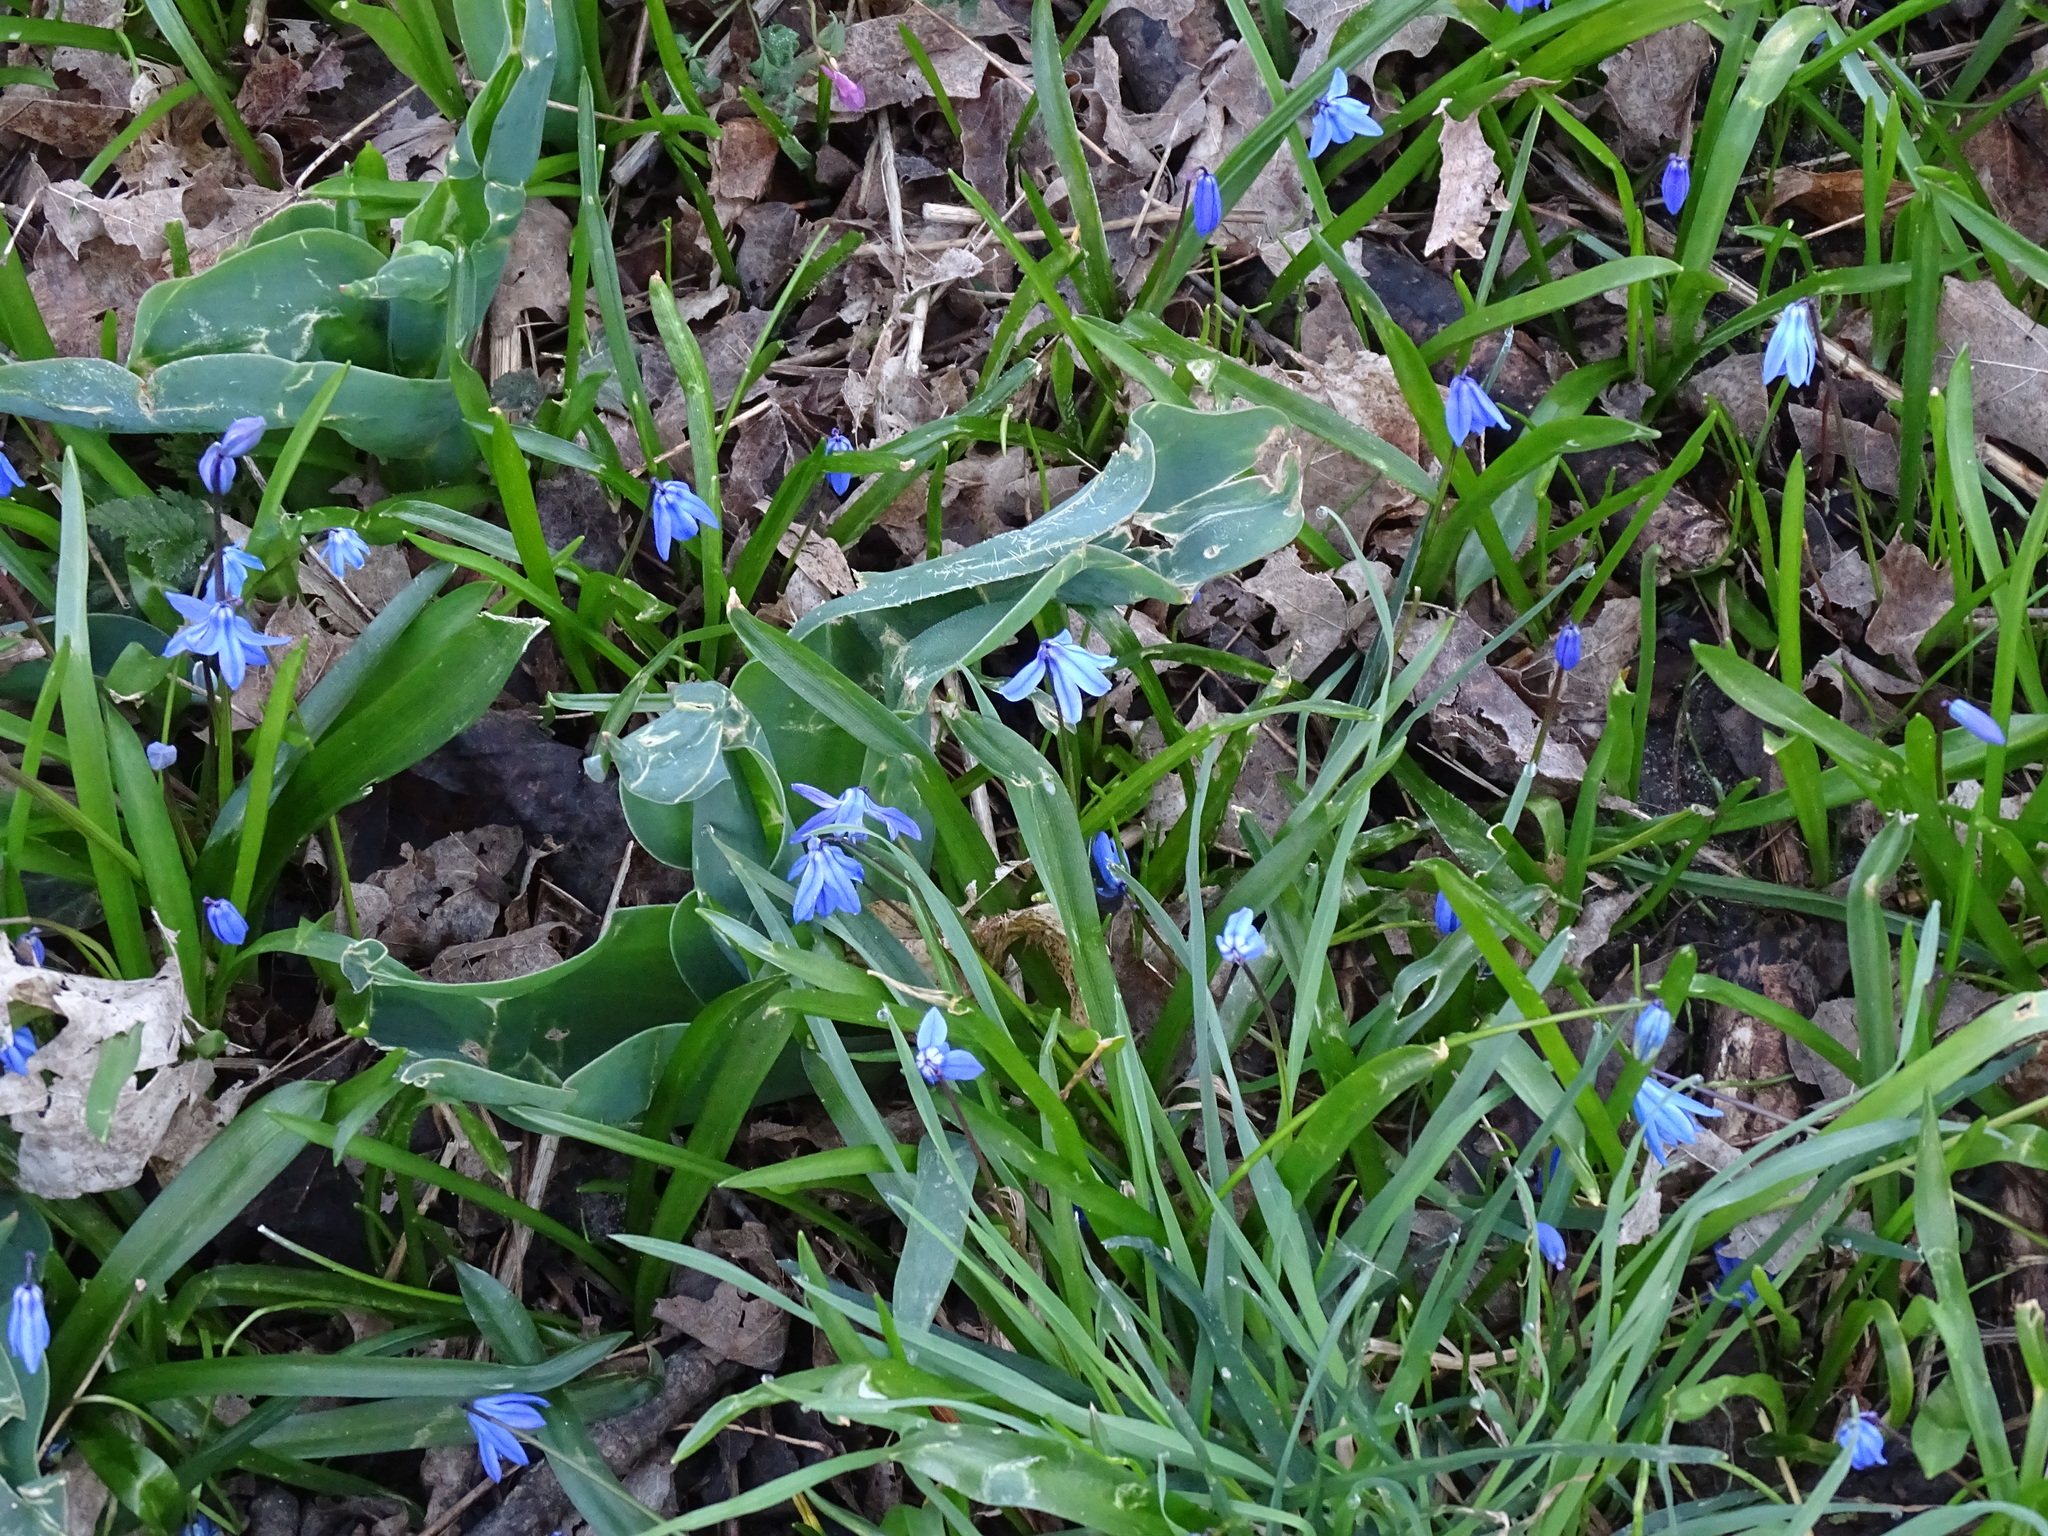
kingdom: Plantae
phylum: Tracheophyta
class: Liliopsida
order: Asparagales
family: Asparagaceae
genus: Scilla
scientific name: Scilla siberica
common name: Siberian squill
